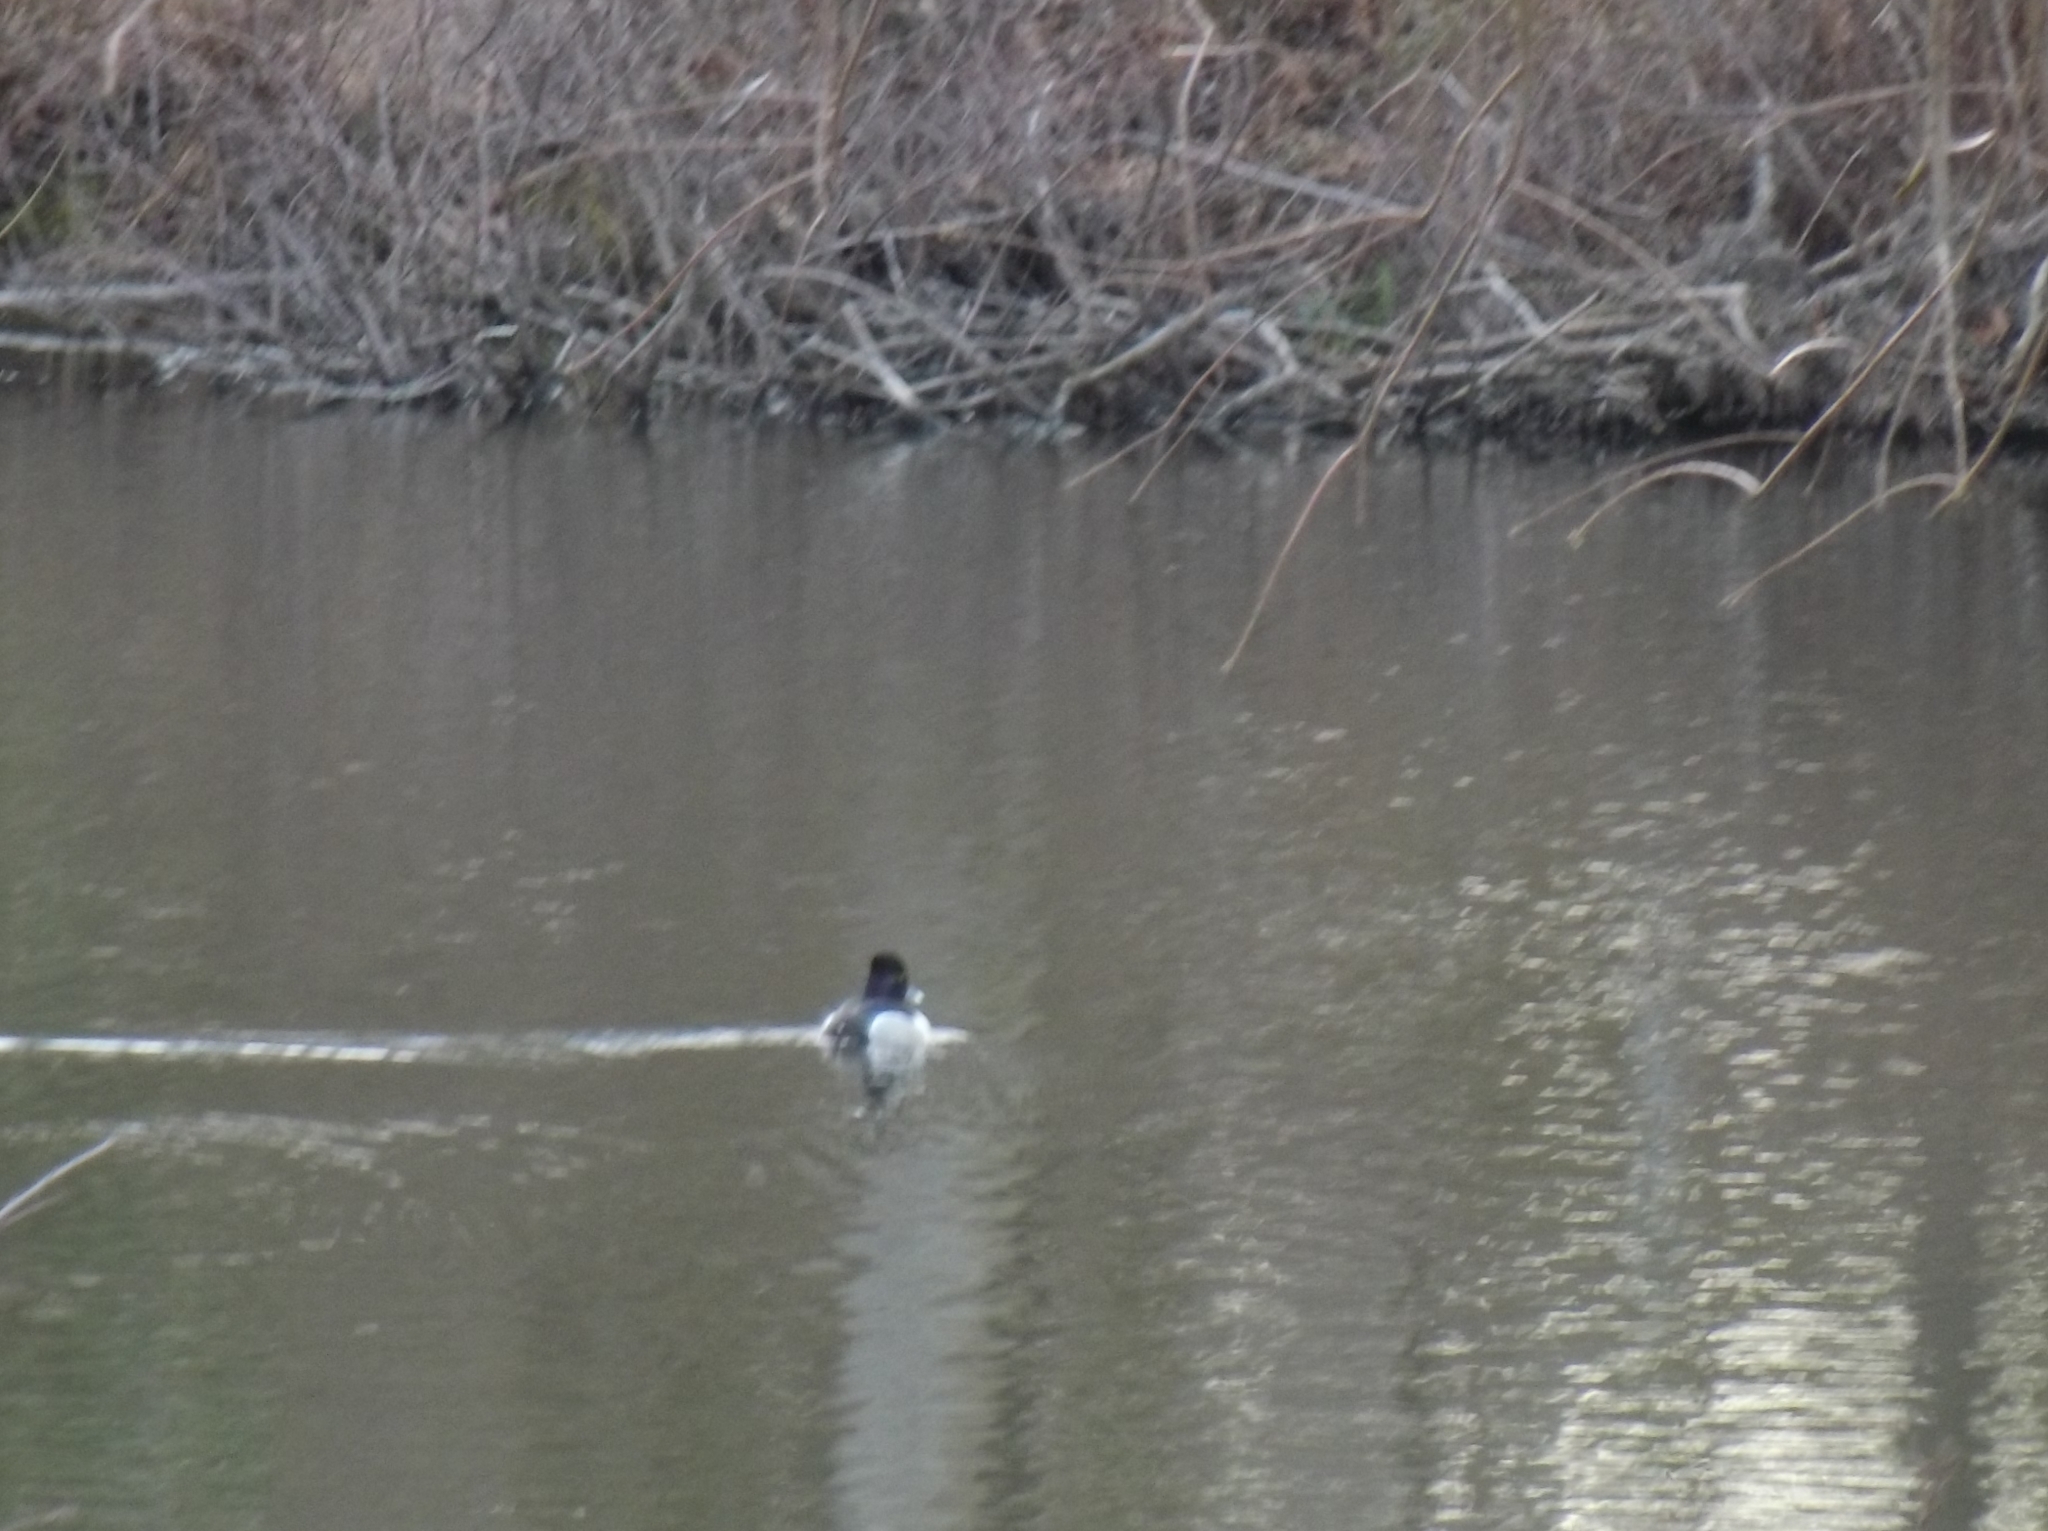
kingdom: Animalia
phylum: Chordata
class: Aves
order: Anseriformes
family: Anatidae
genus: Aythya
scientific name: Aythya collaris
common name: Ring-necked duck
